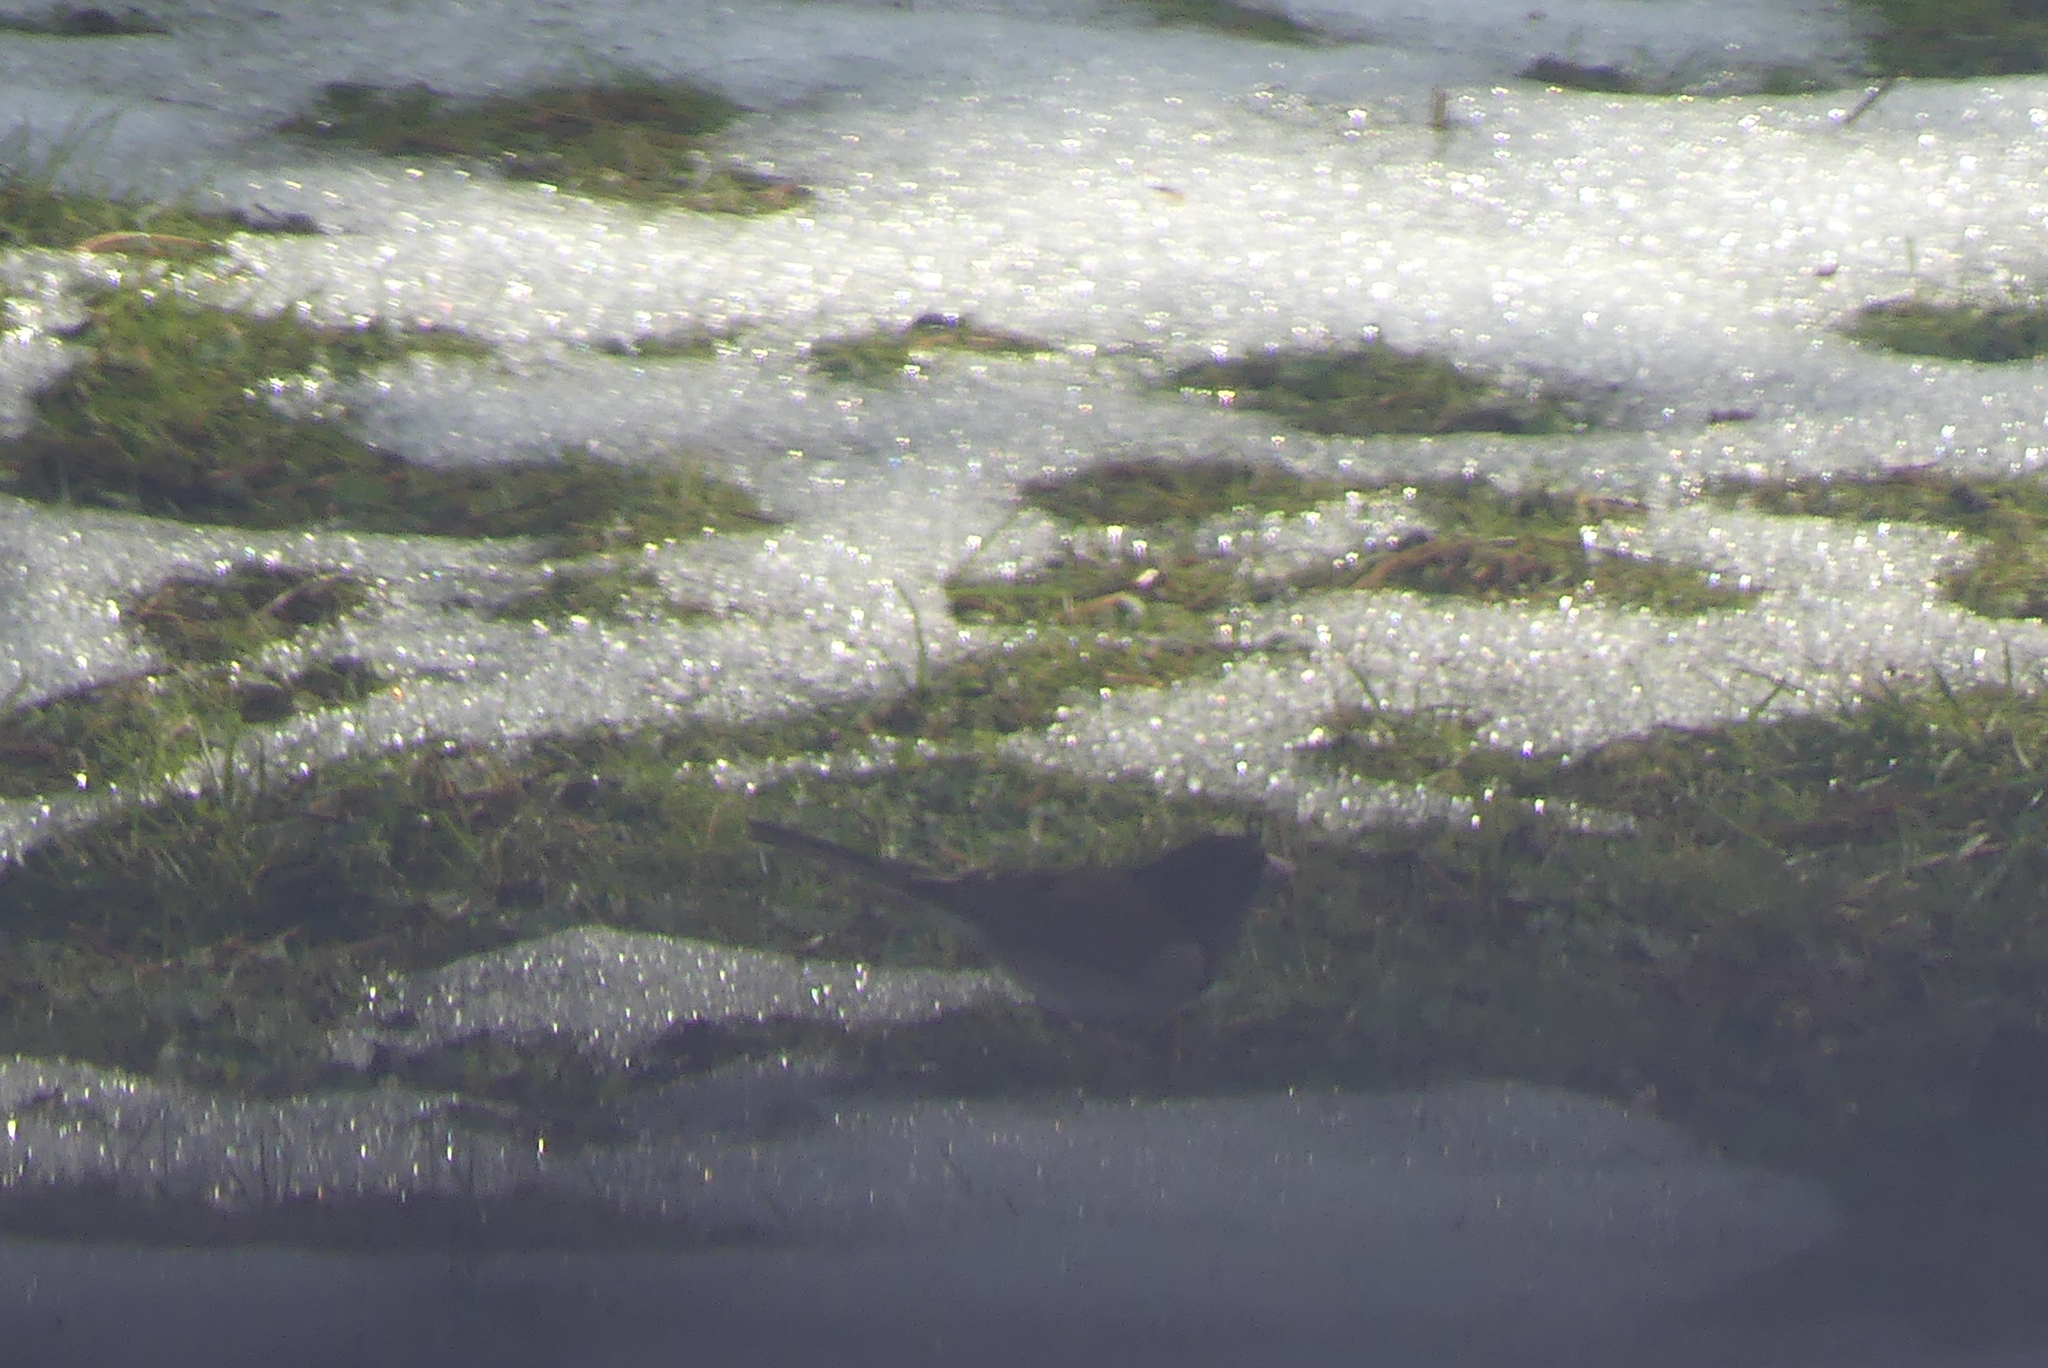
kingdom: Animalia
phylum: Chordata
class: Aves
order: Passeriformes
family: Passerellidae
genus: Junco
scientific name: Junco hyemalis
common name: Dark-eyed junco
